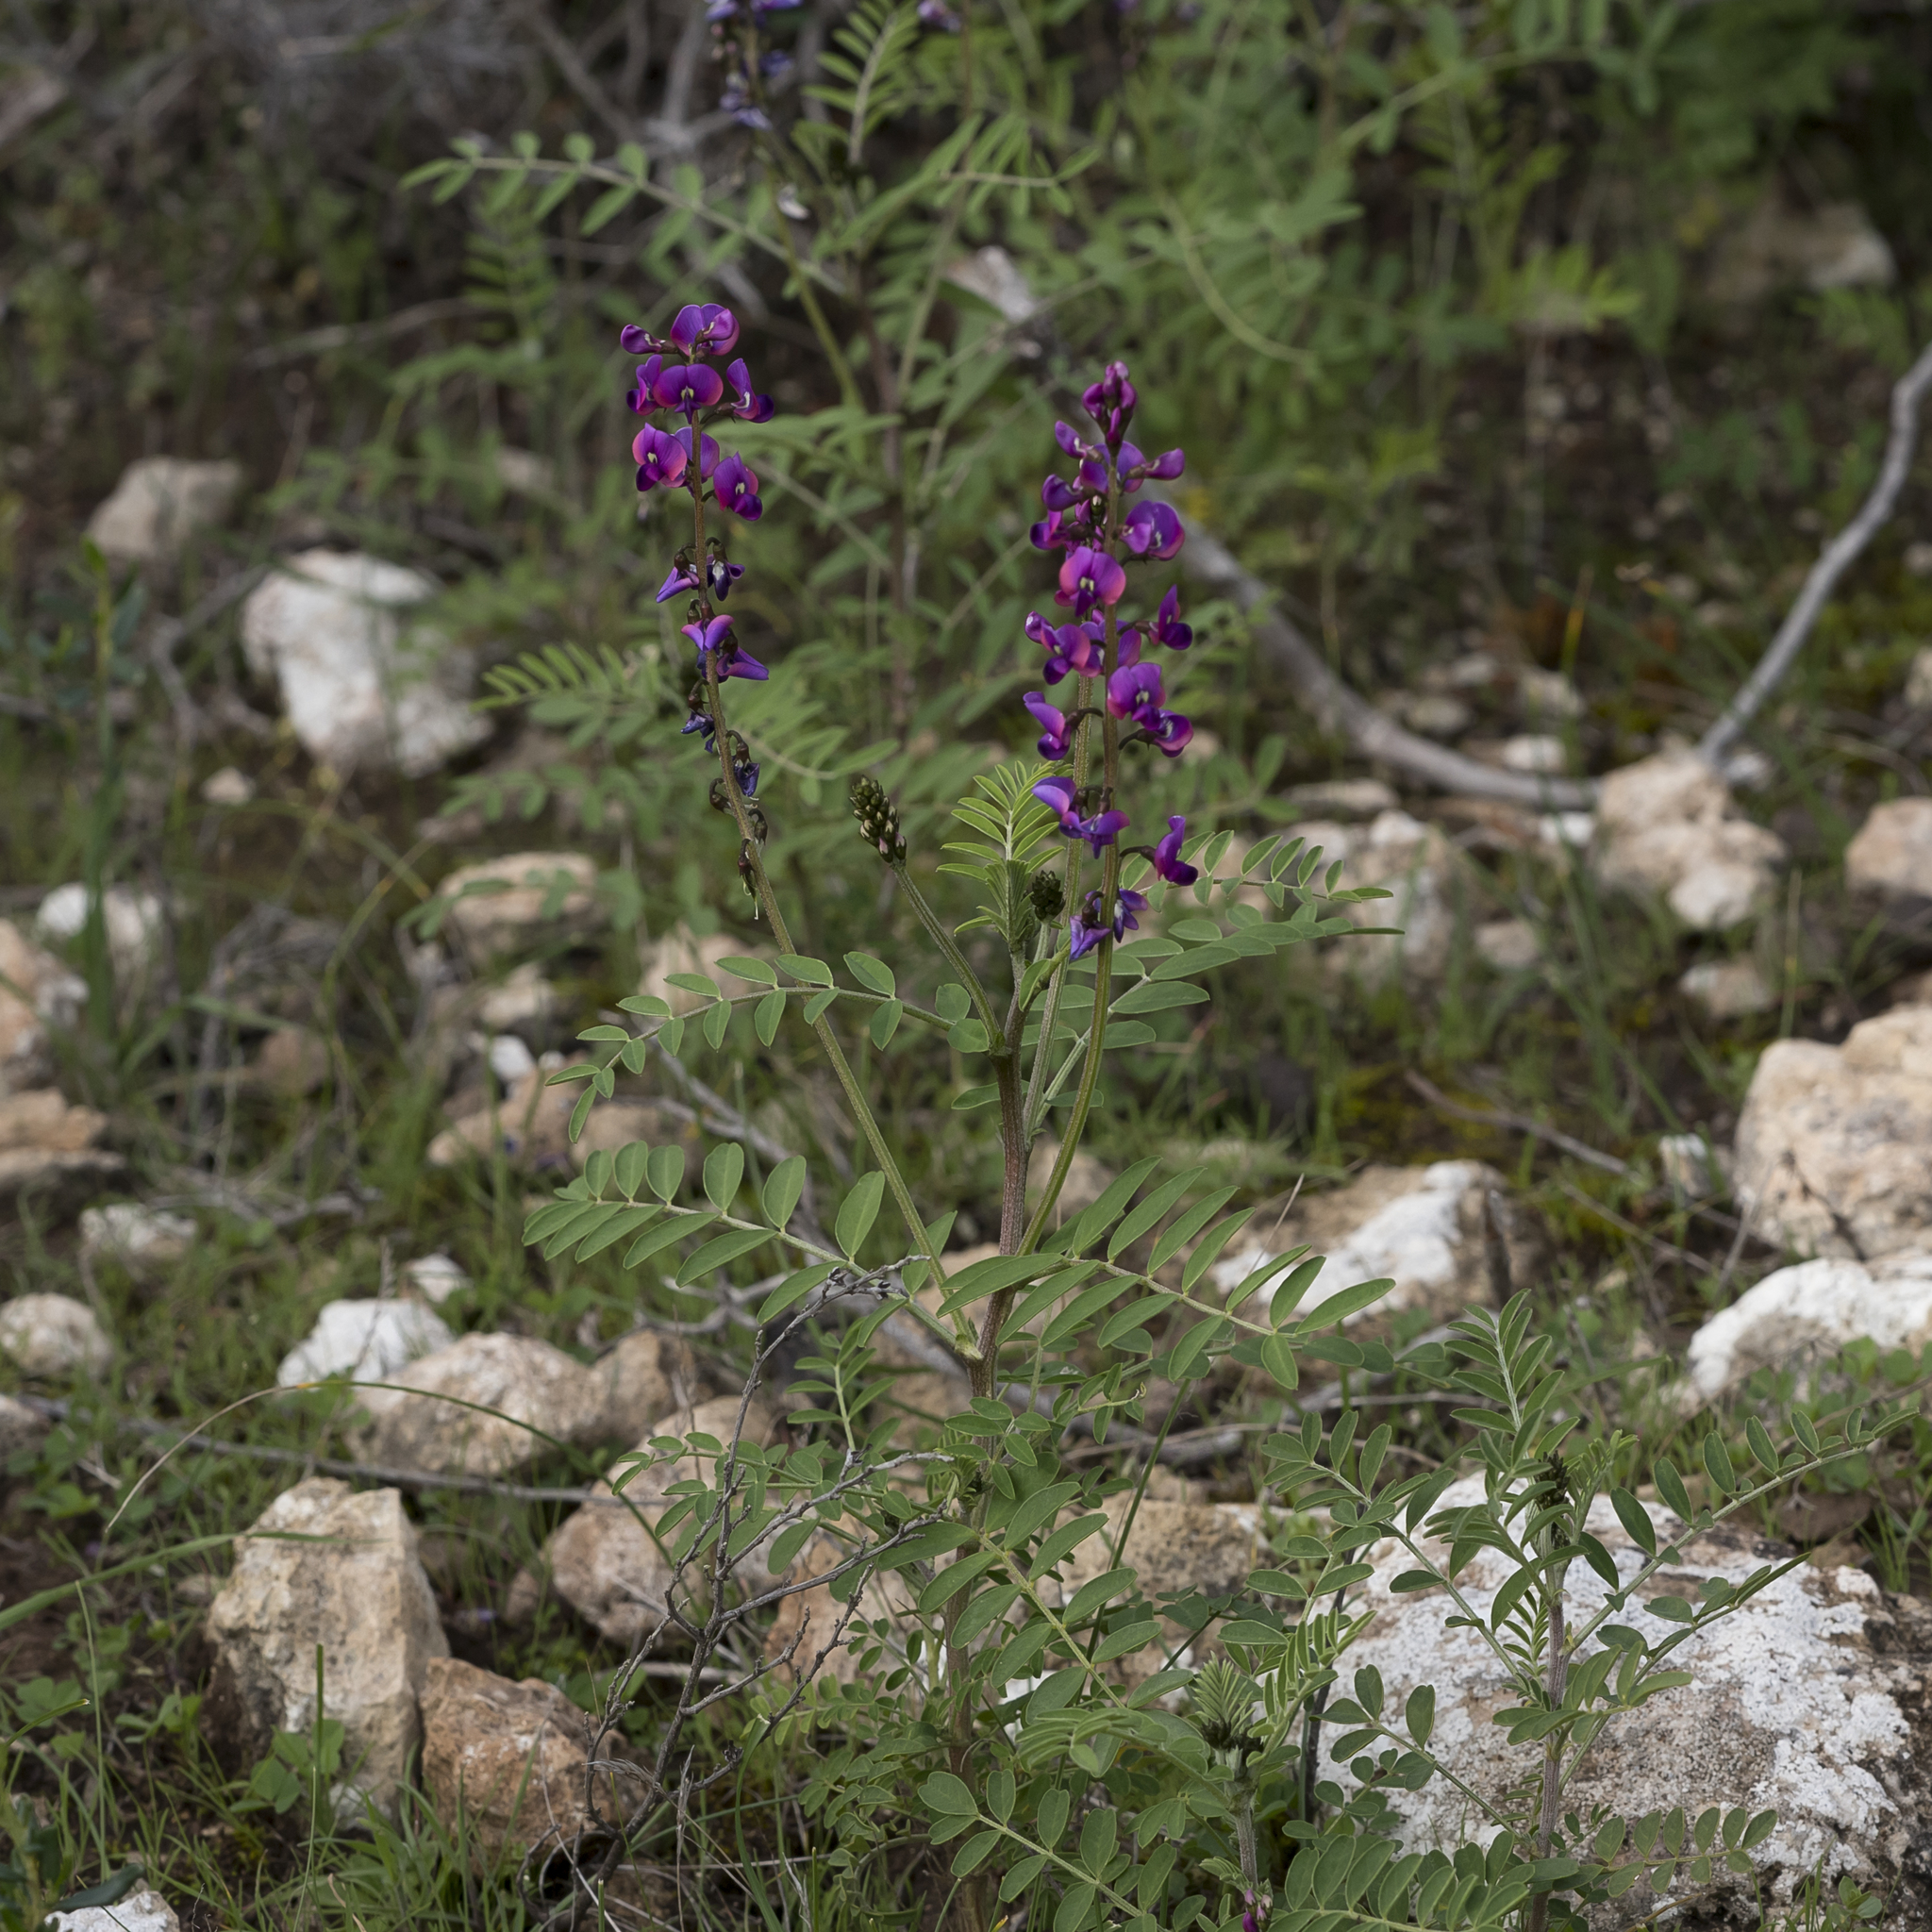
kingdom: Plantae
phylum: Tracheophyta
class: Magnoliopsida
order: Fabales
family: Fabaceae
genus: Swainsona
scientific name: Swainsona lessertiifolia
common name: Bog-pea
